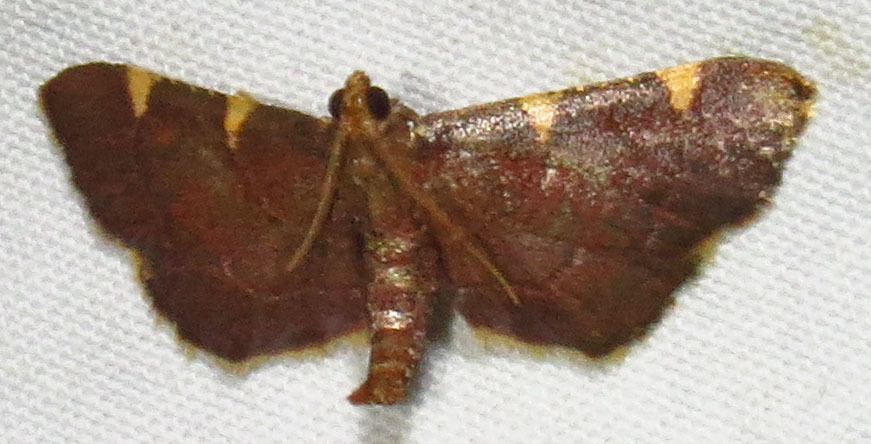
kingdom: Animalia
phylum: Arthropoda
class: Insecta
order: Lepidoptera
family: Pyralidae
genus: Hypsopygia
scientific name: Hypsopygia olinalis
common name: Yellow-fringed dolichomia moth
